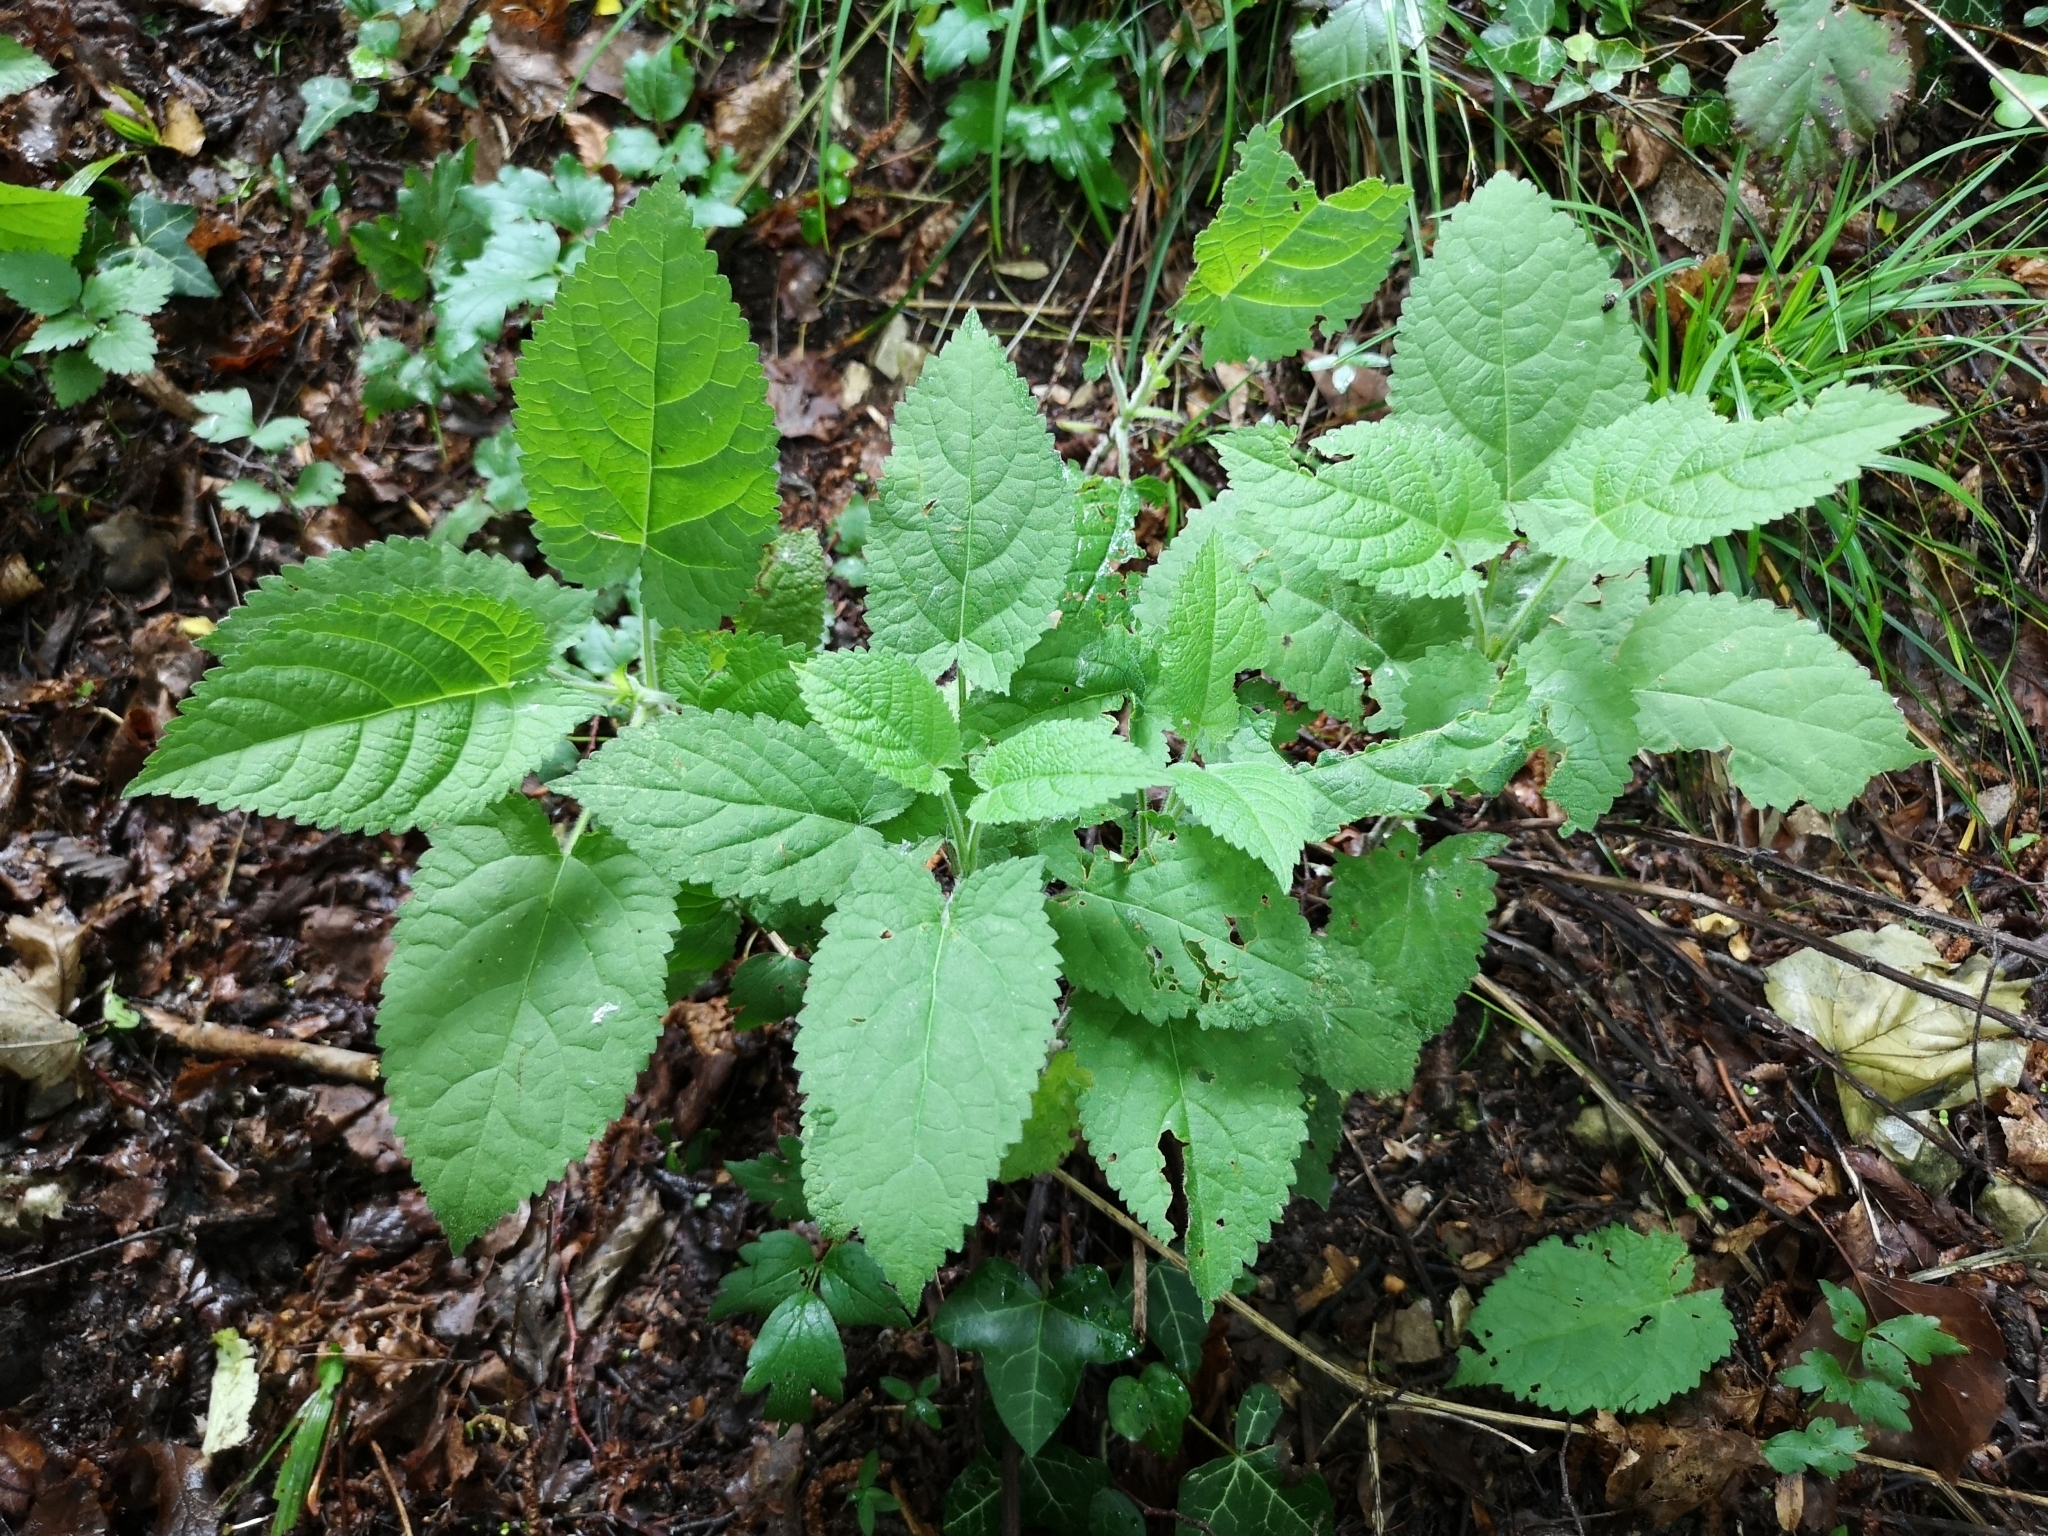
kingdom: Plantae
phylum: Tracheophyta
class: Magnoliopsida
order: Lamiales
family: Lamiaceae
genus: Salvia
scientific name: Salvia glutinosa
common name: Sticky clary
